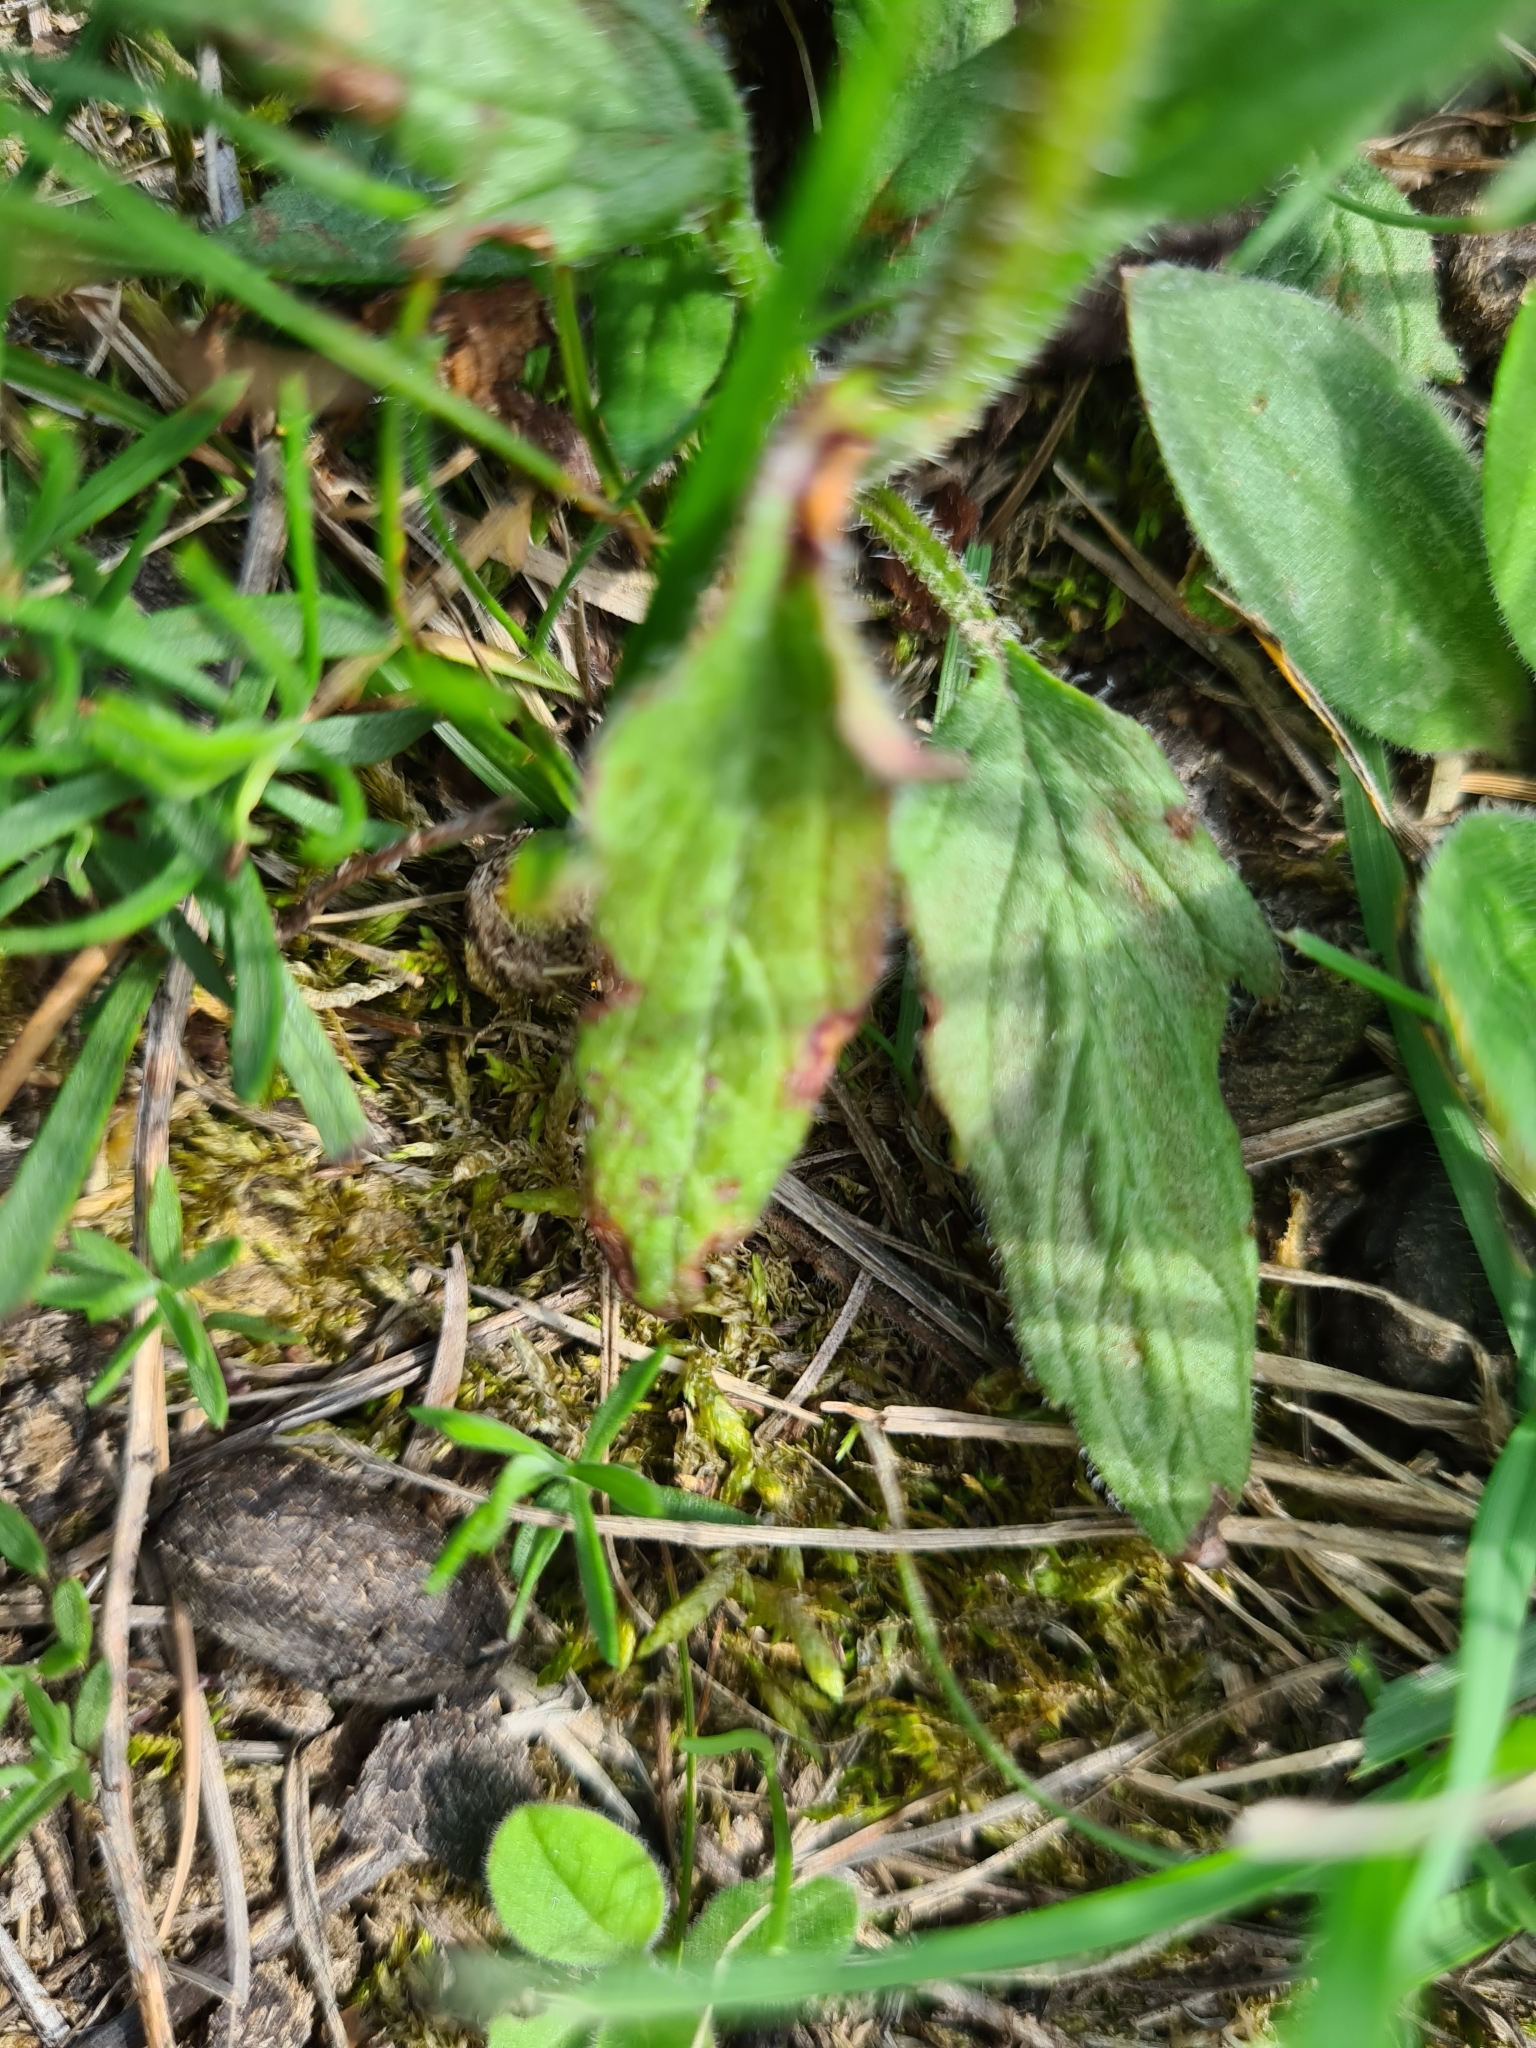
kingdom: Plantae
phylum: Tracheophyta
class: Magnoliopsida
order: Lamiales
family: Lamiaceae
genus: Prunella
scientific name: Prunella grandiflora
